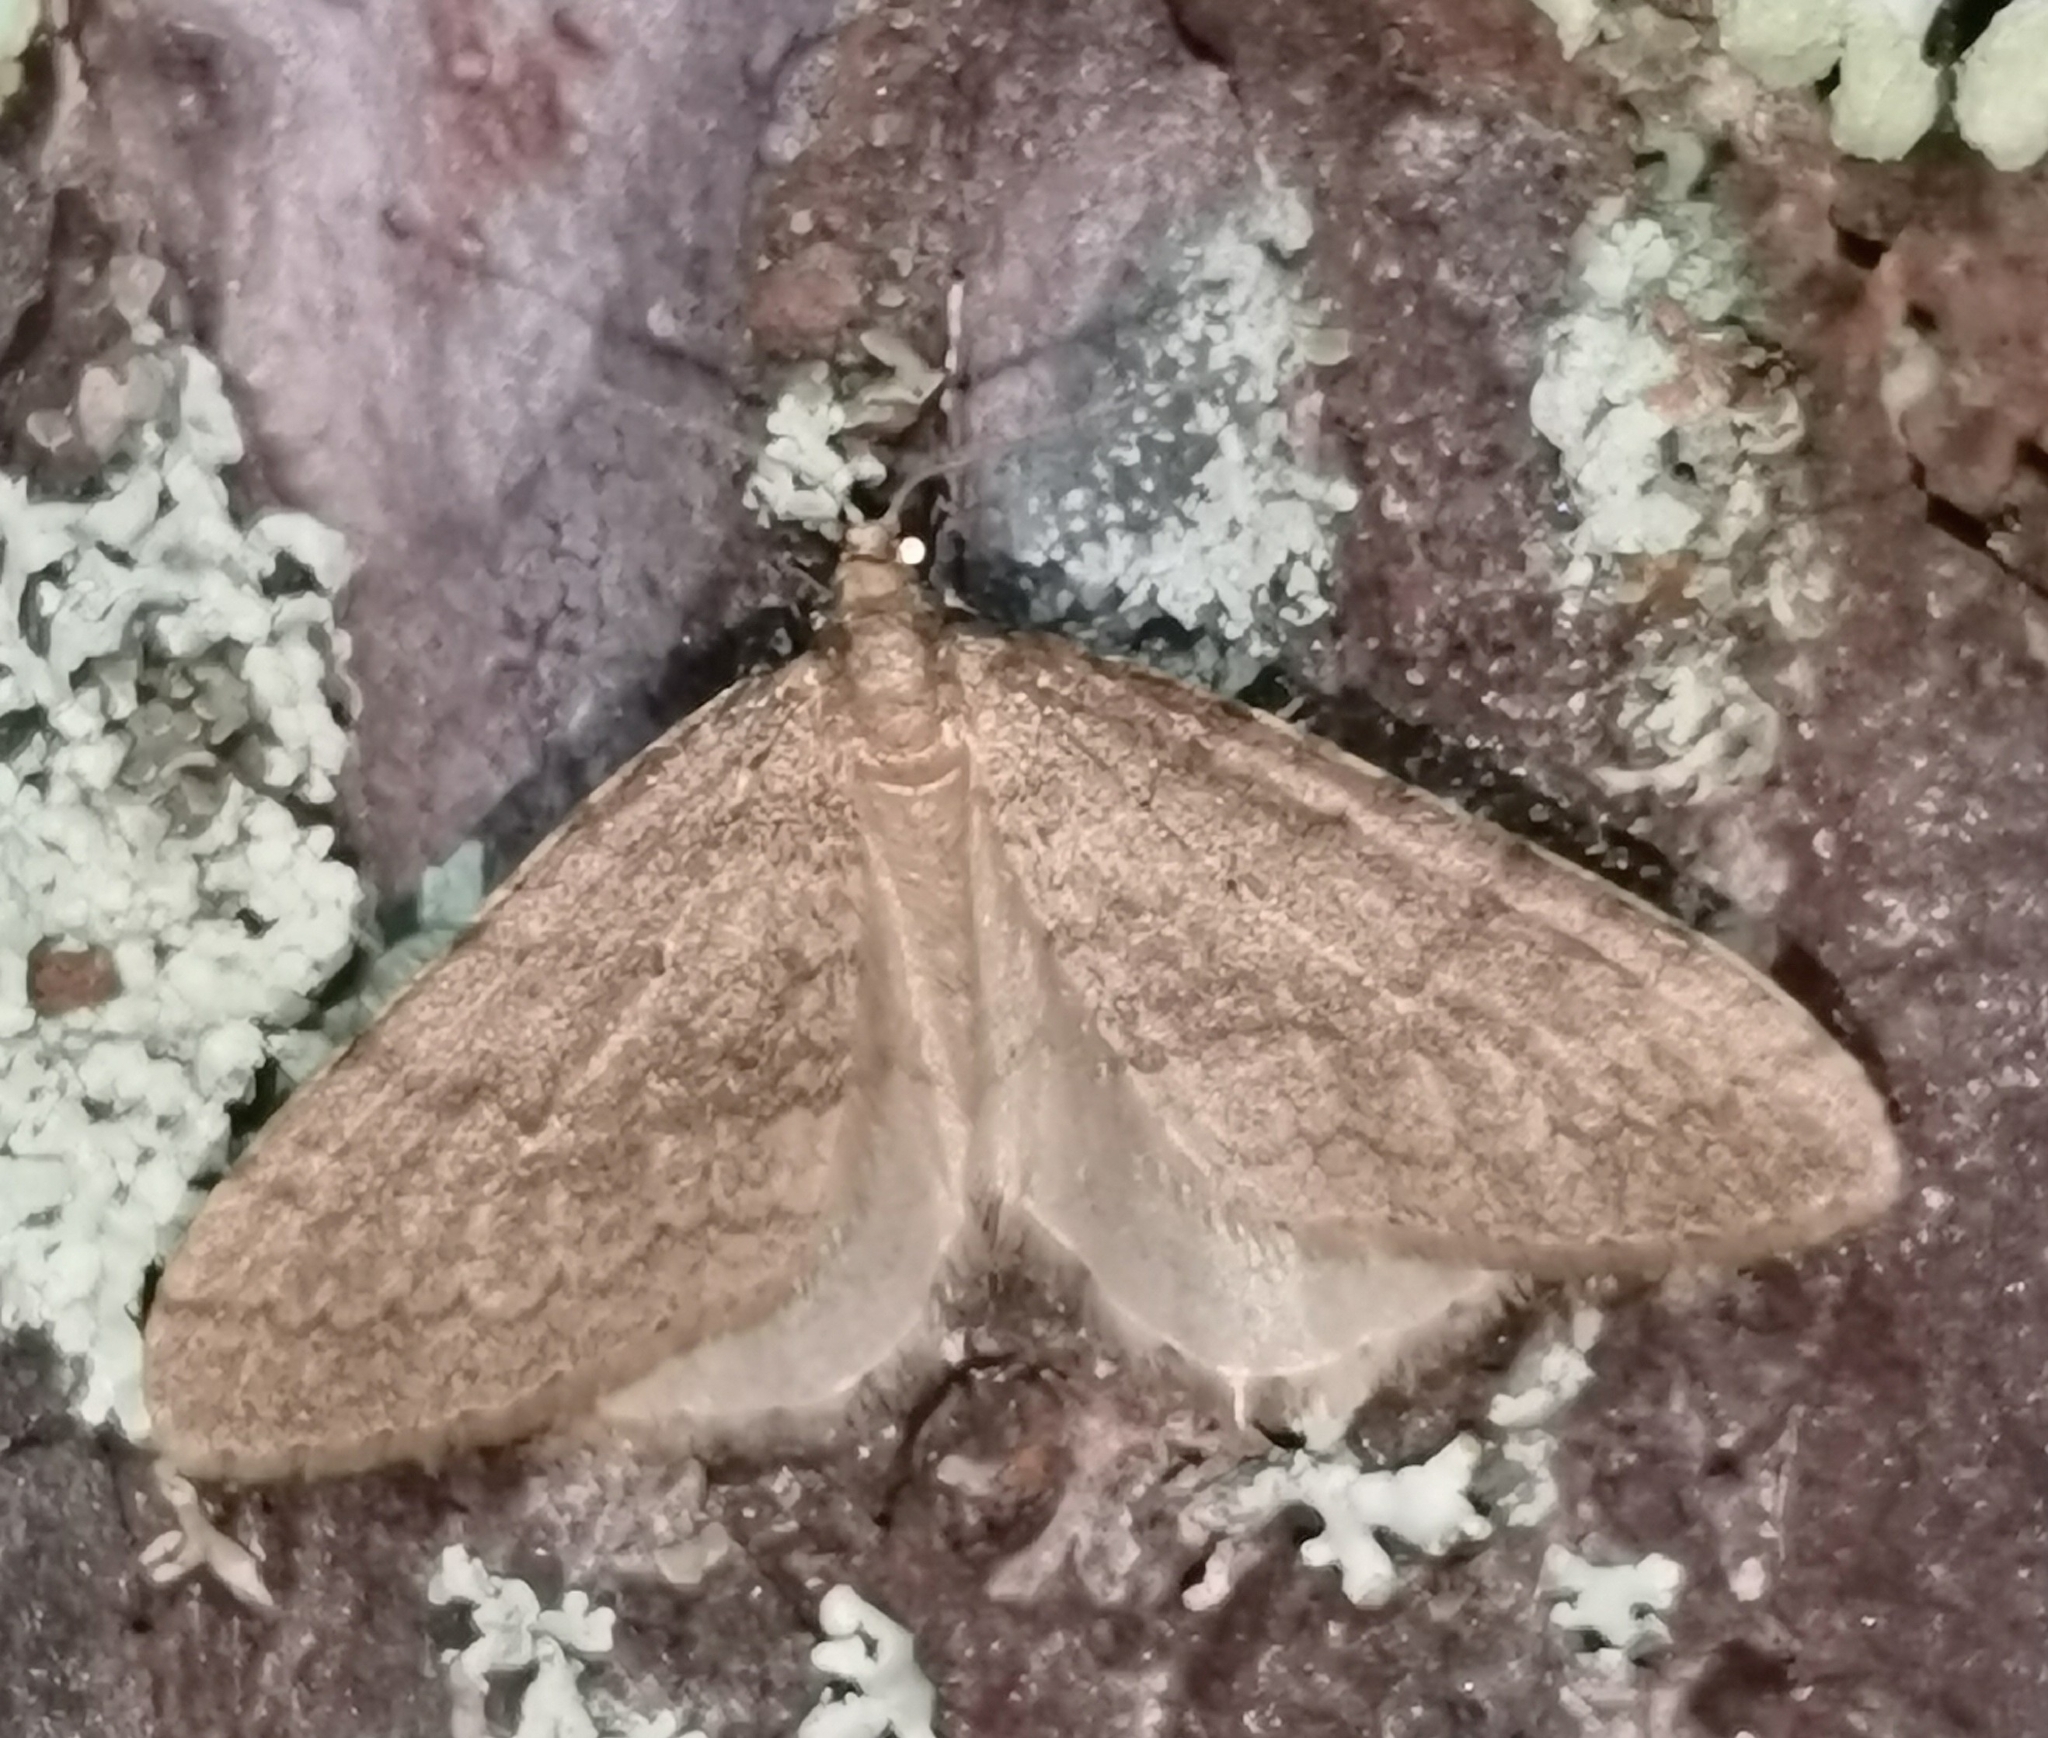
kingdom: Animalia
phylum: Arthropoda
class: Insecta
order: Lepidoptera
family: Geometridae
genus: Operophtera
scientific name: Operophtera brumata
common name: Winter moth
